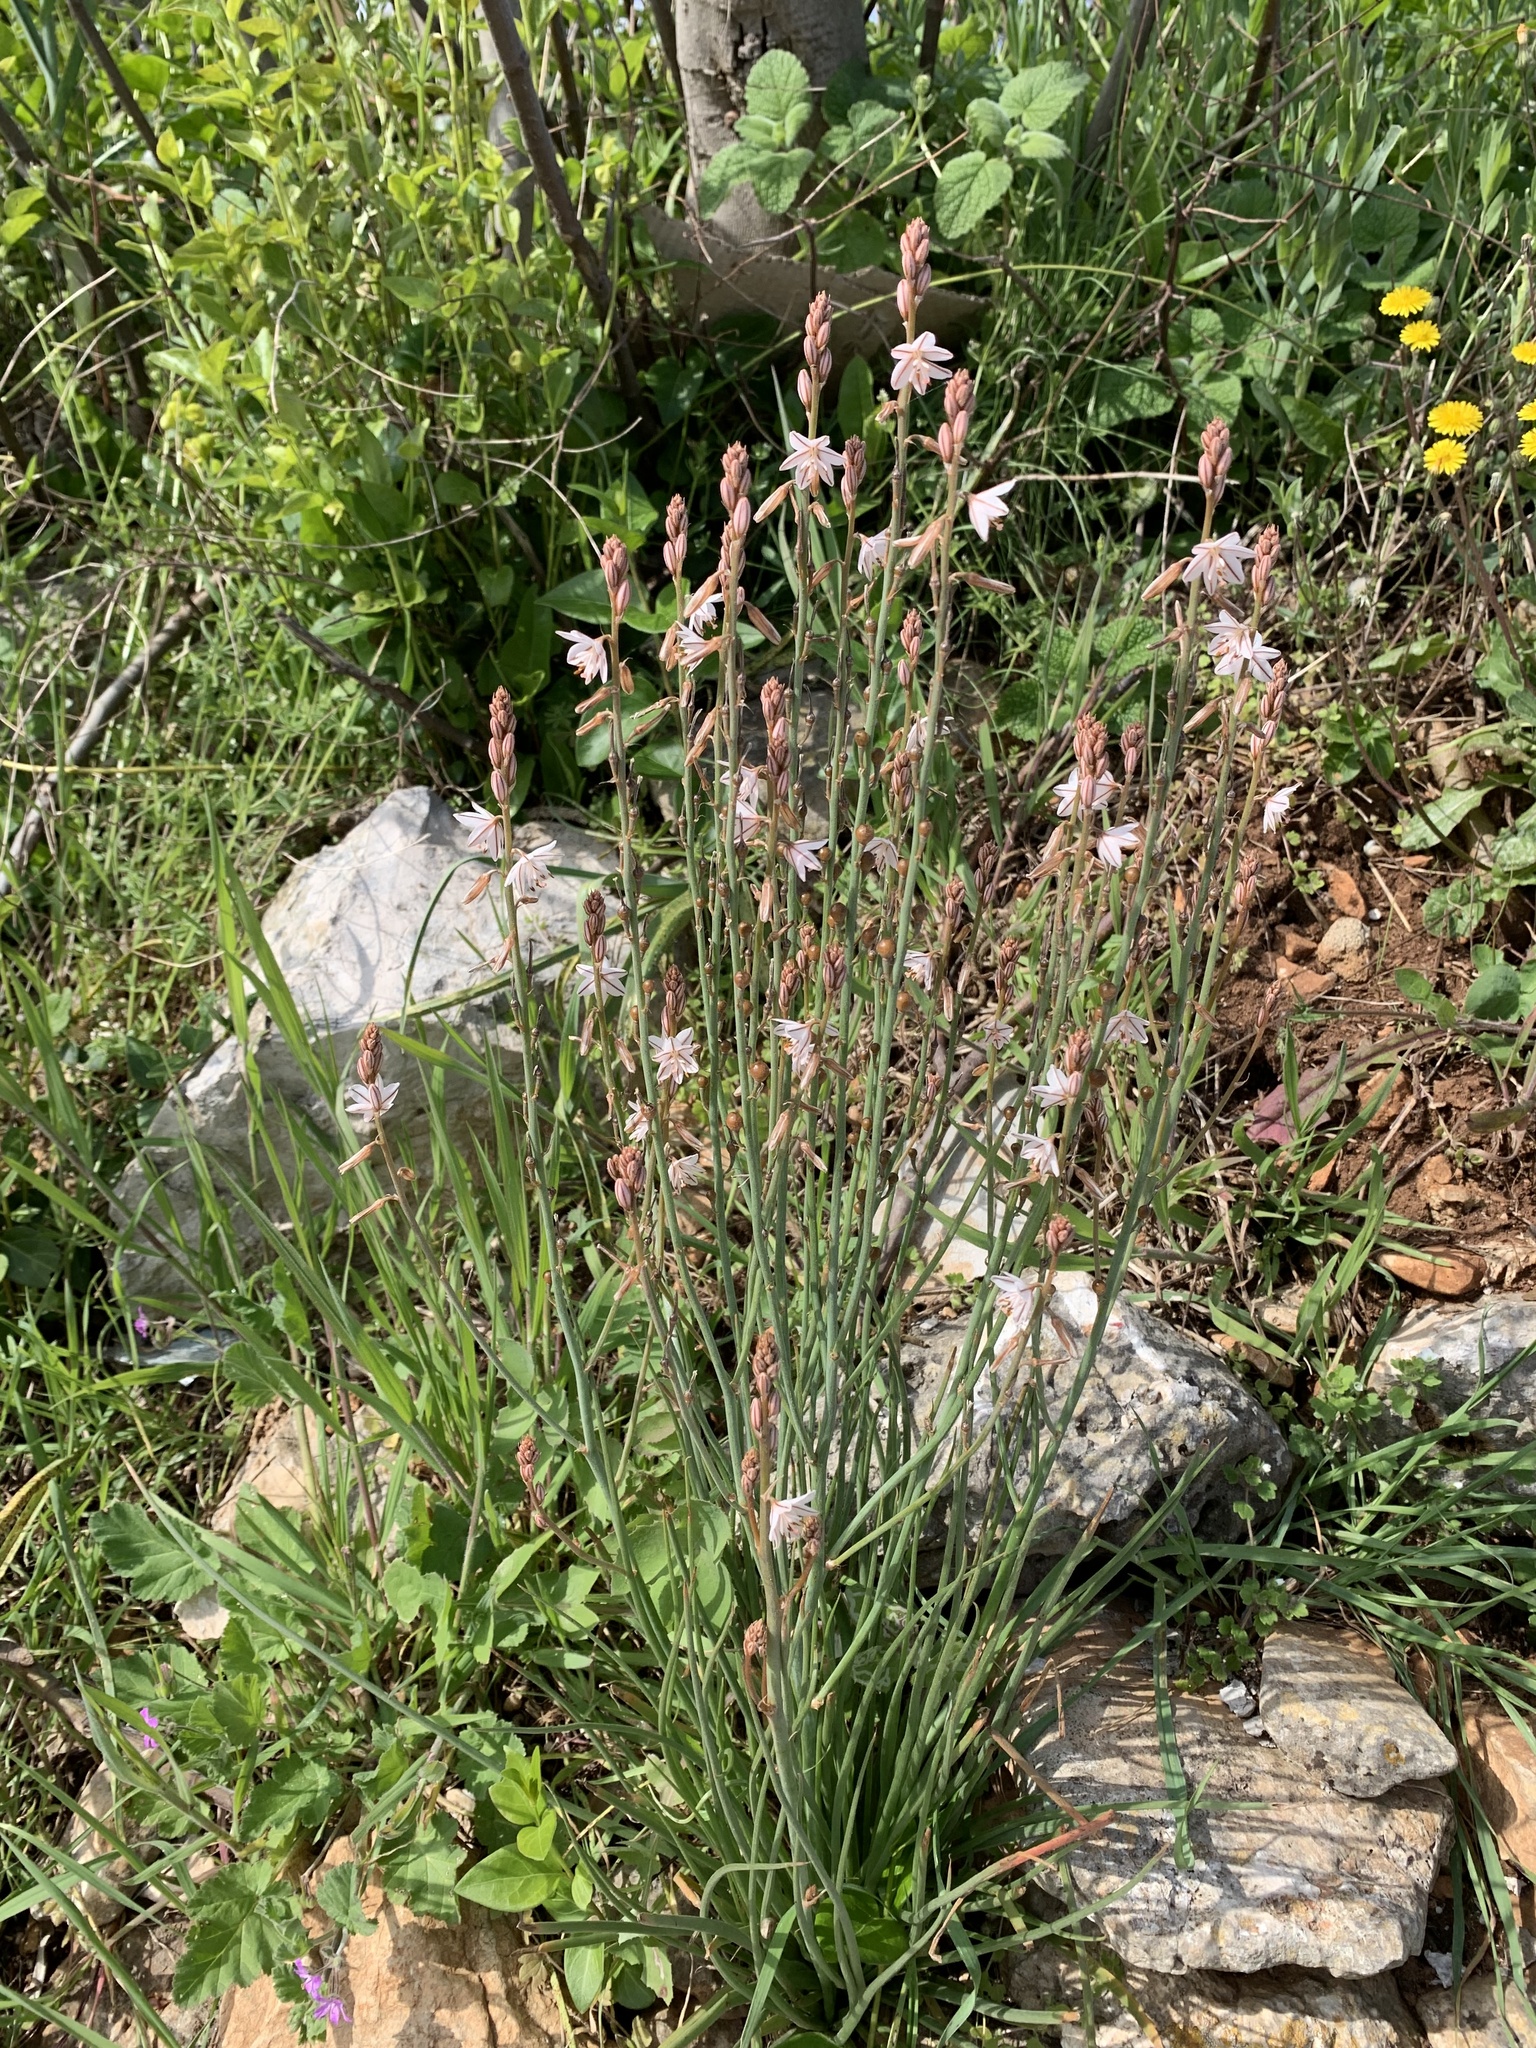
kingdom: Plantae
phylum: Tracheophyta
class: Liliopsida
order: Asparagales
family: Asphodelaceae
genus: Asphodelus
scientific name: Asphodelus fistulosus
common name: Onionweed
